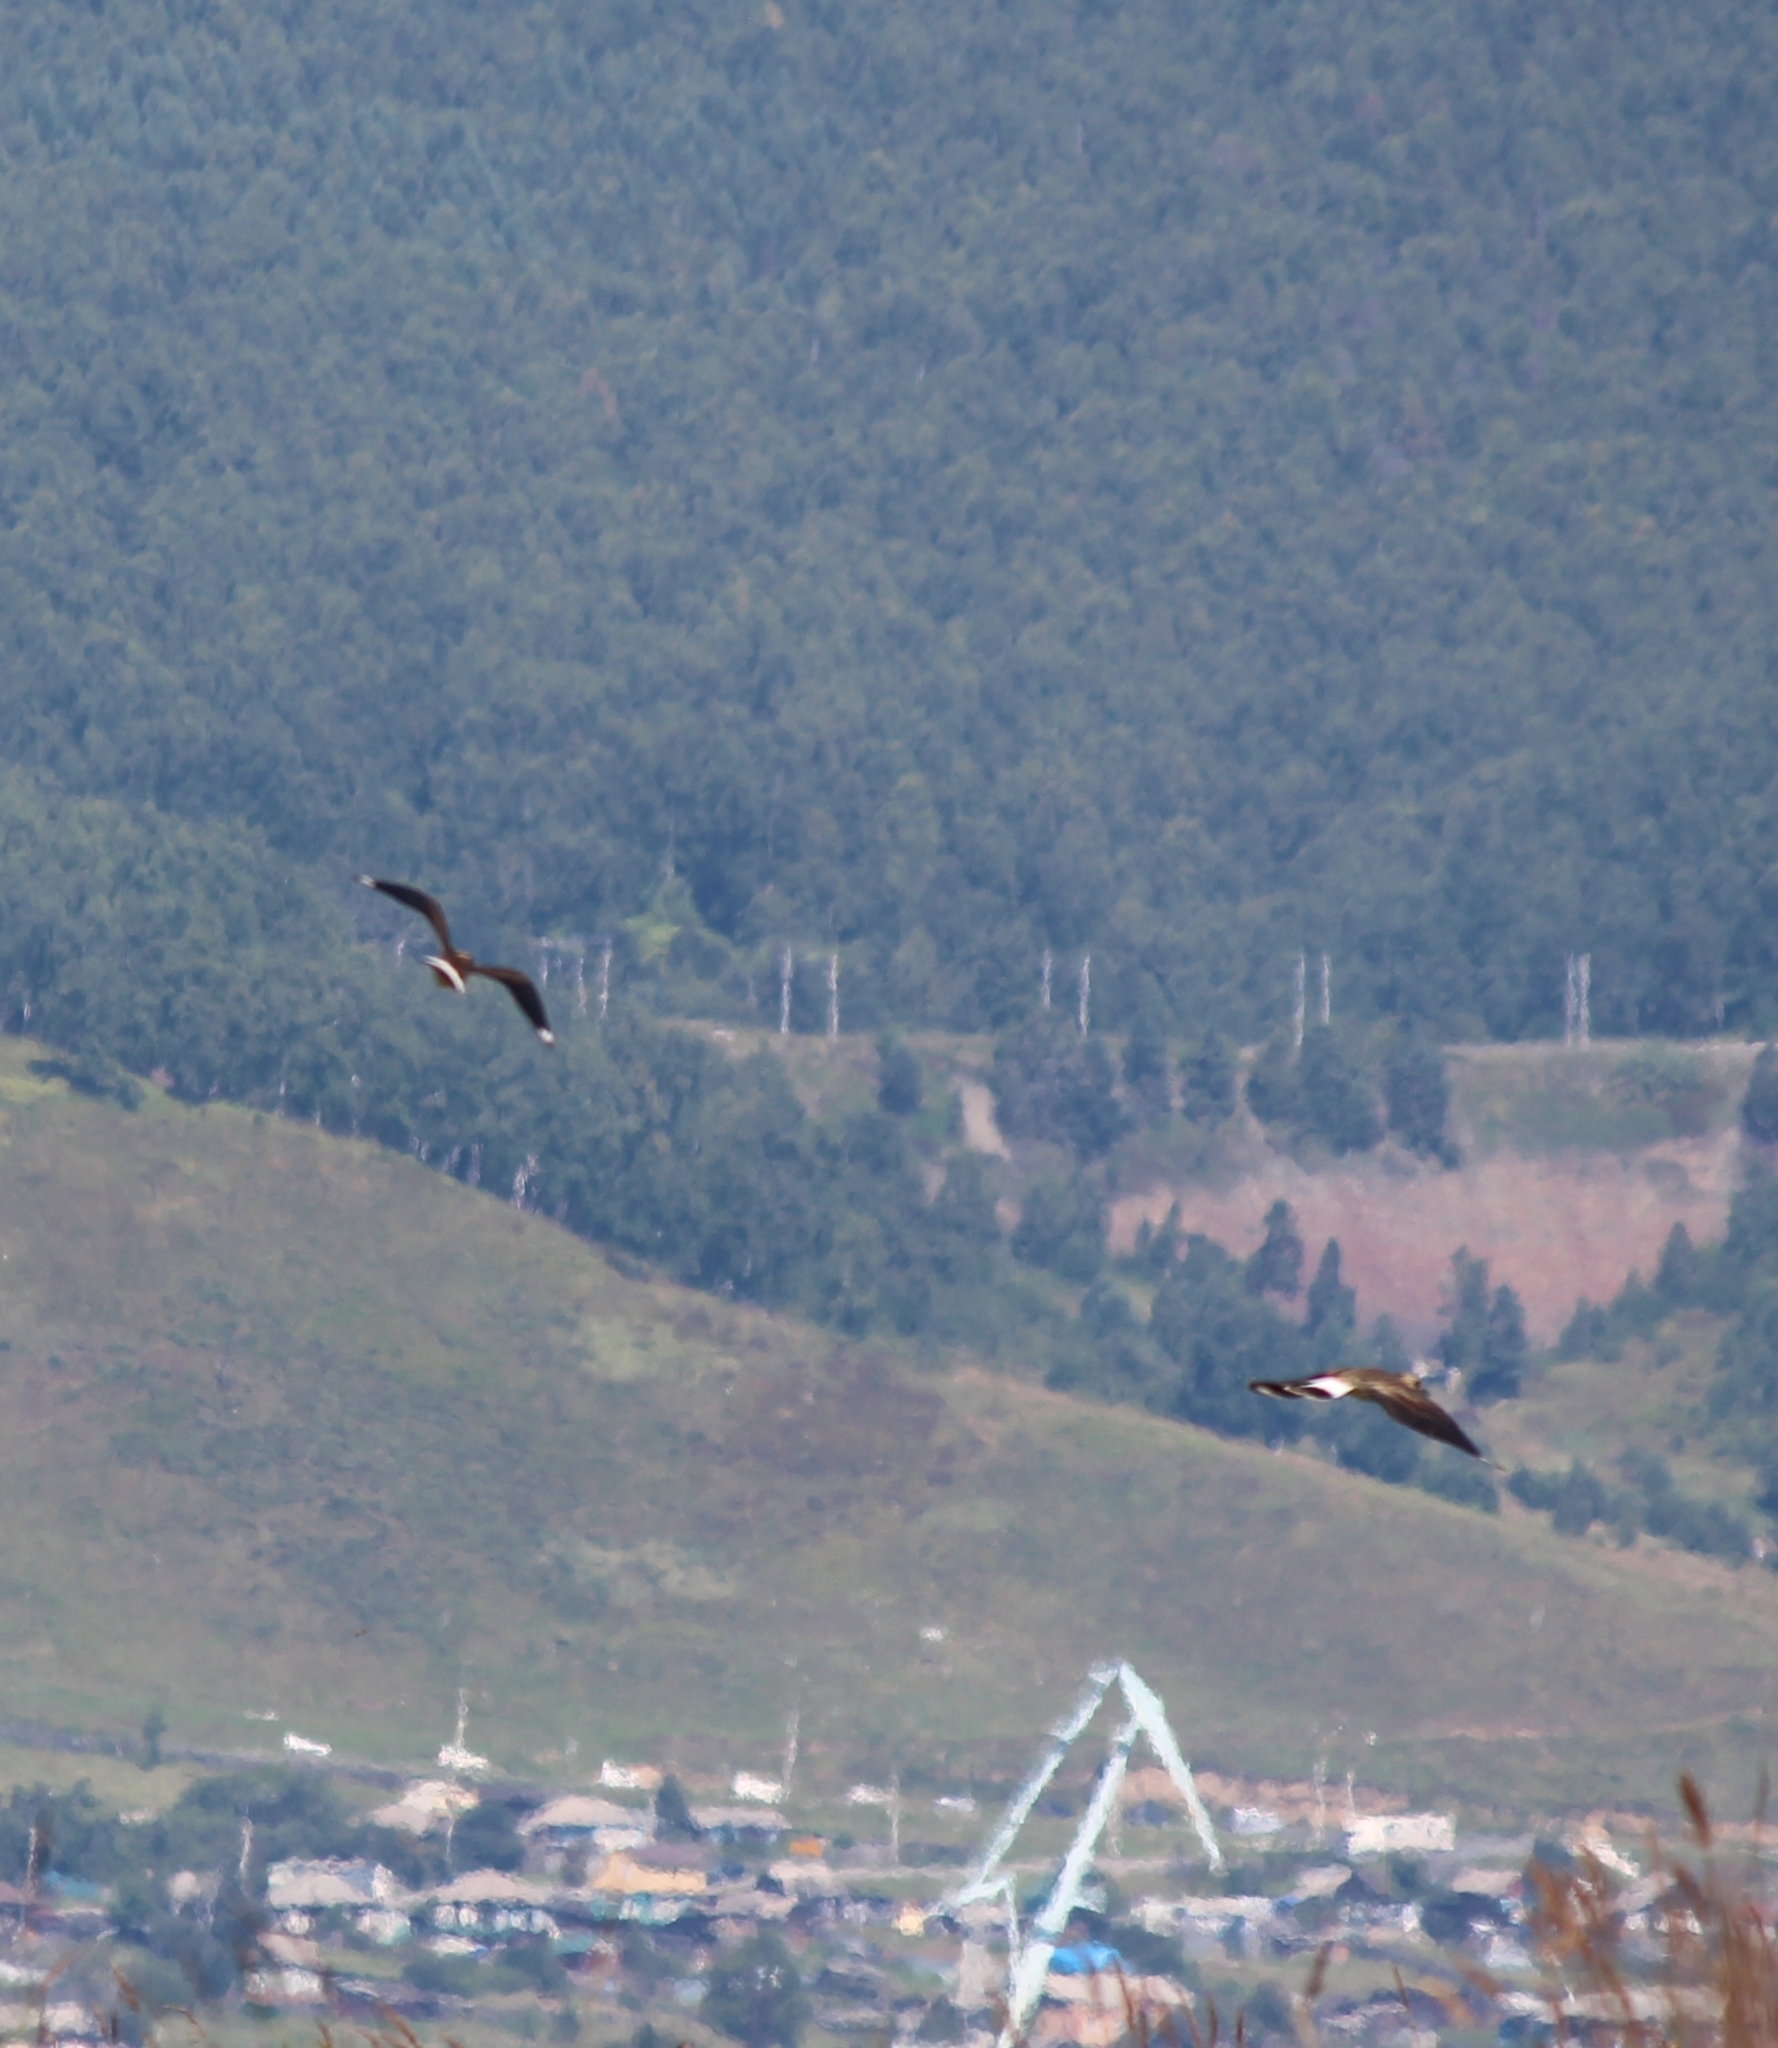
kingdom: Animalia
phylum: Chordata
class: Aves
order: Charadriiformes
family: Charadriidae
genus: Vanellus
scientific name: Vanellus vanellus
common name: Northern lapwing
